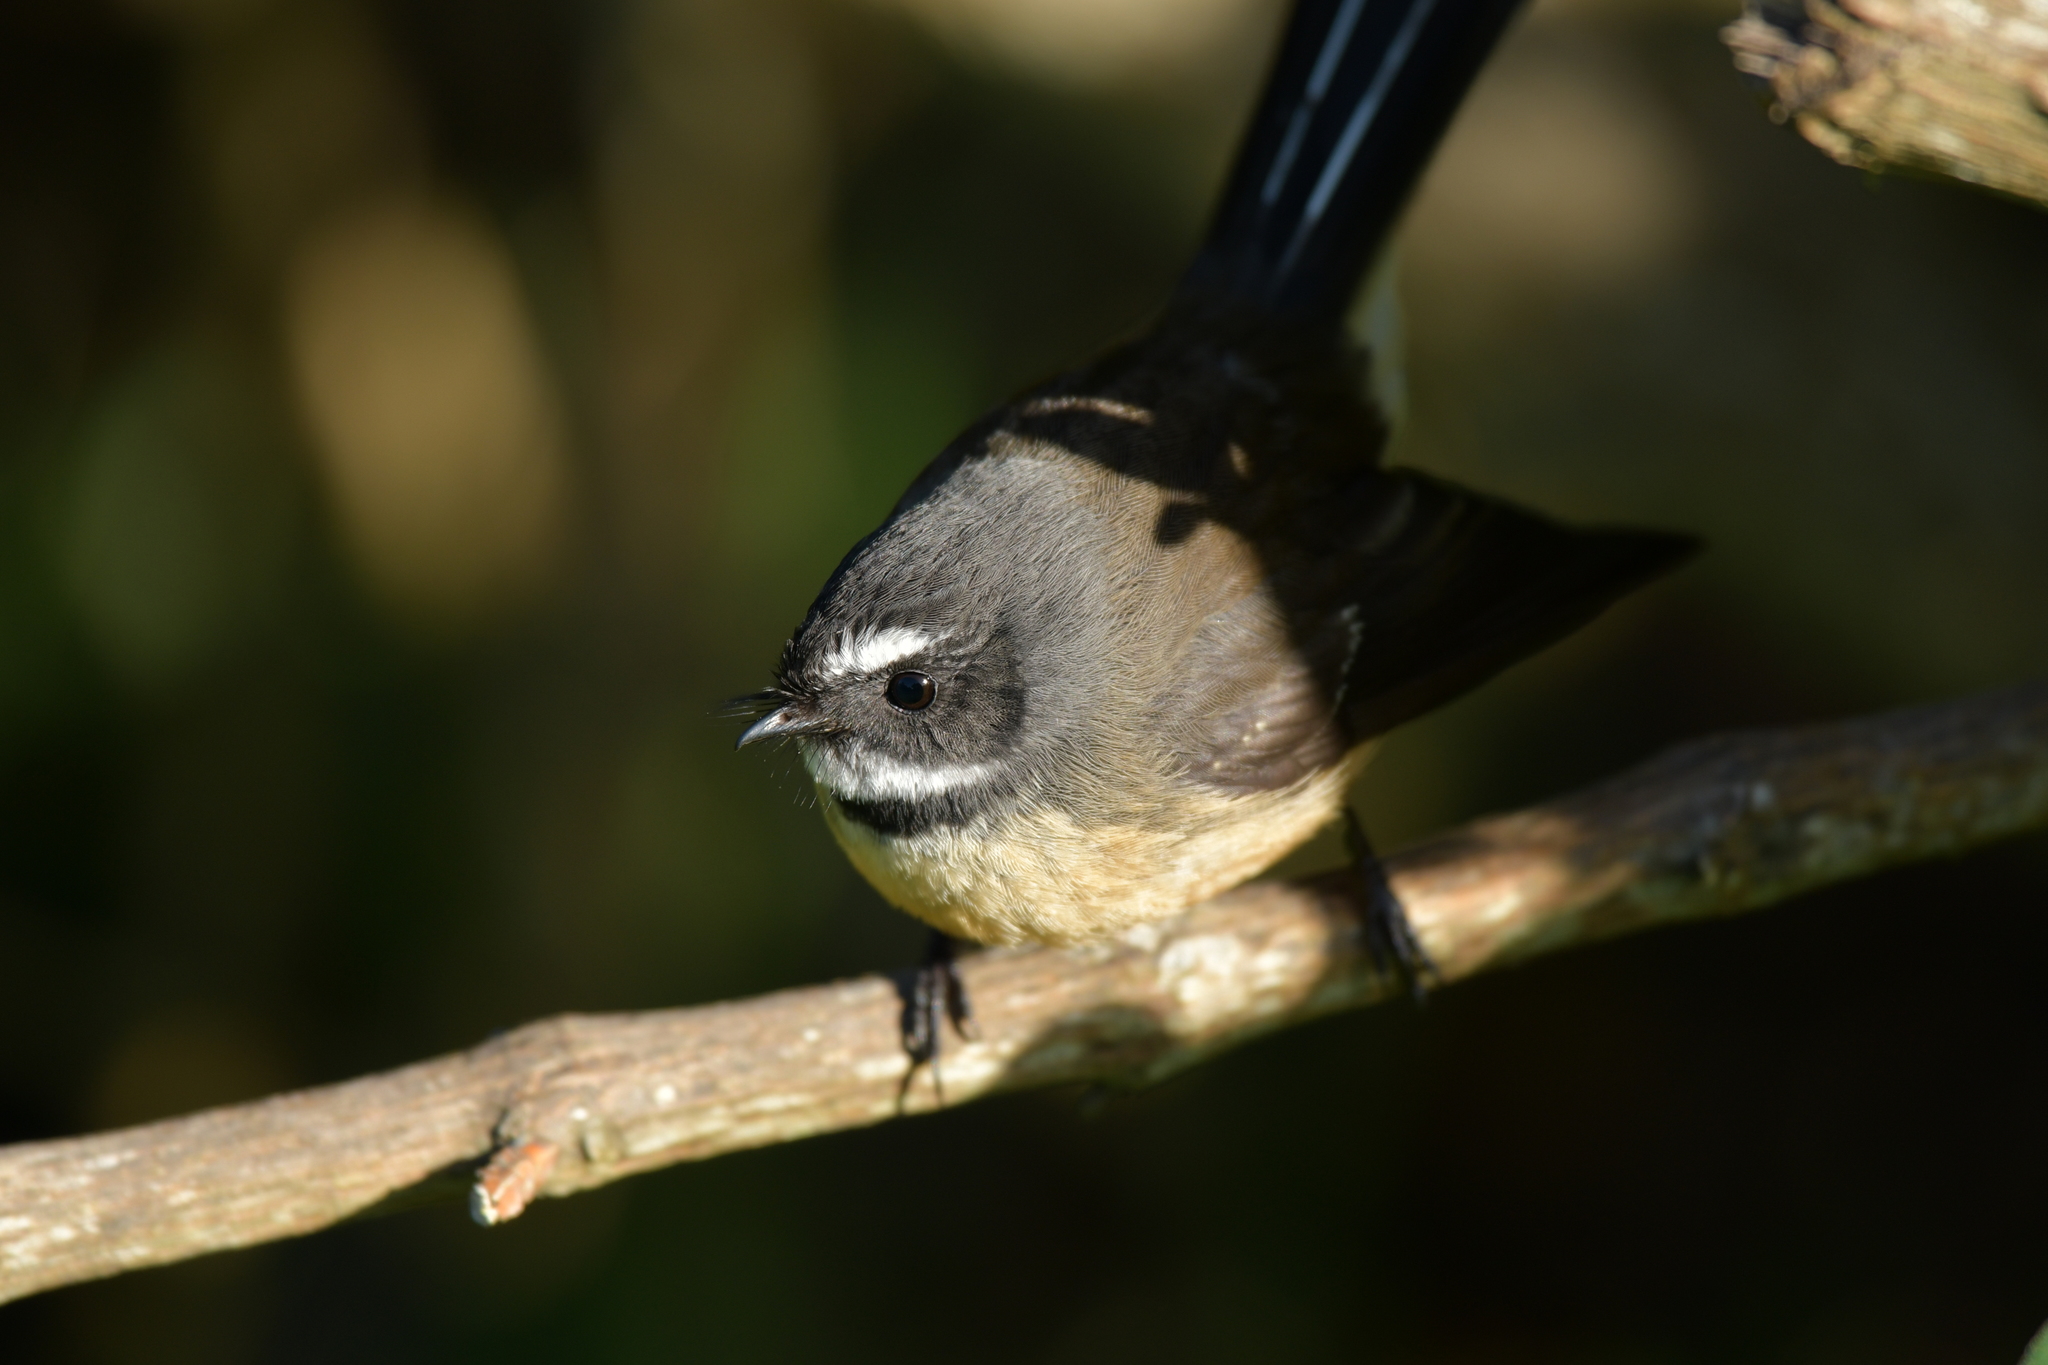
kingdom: Animalia
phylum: Chordata
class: Aves
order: Passeriformes
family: Rhipiduridae
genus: Rhipidura
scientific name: Rhipidura fuliginosa
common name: New zealand fantail
